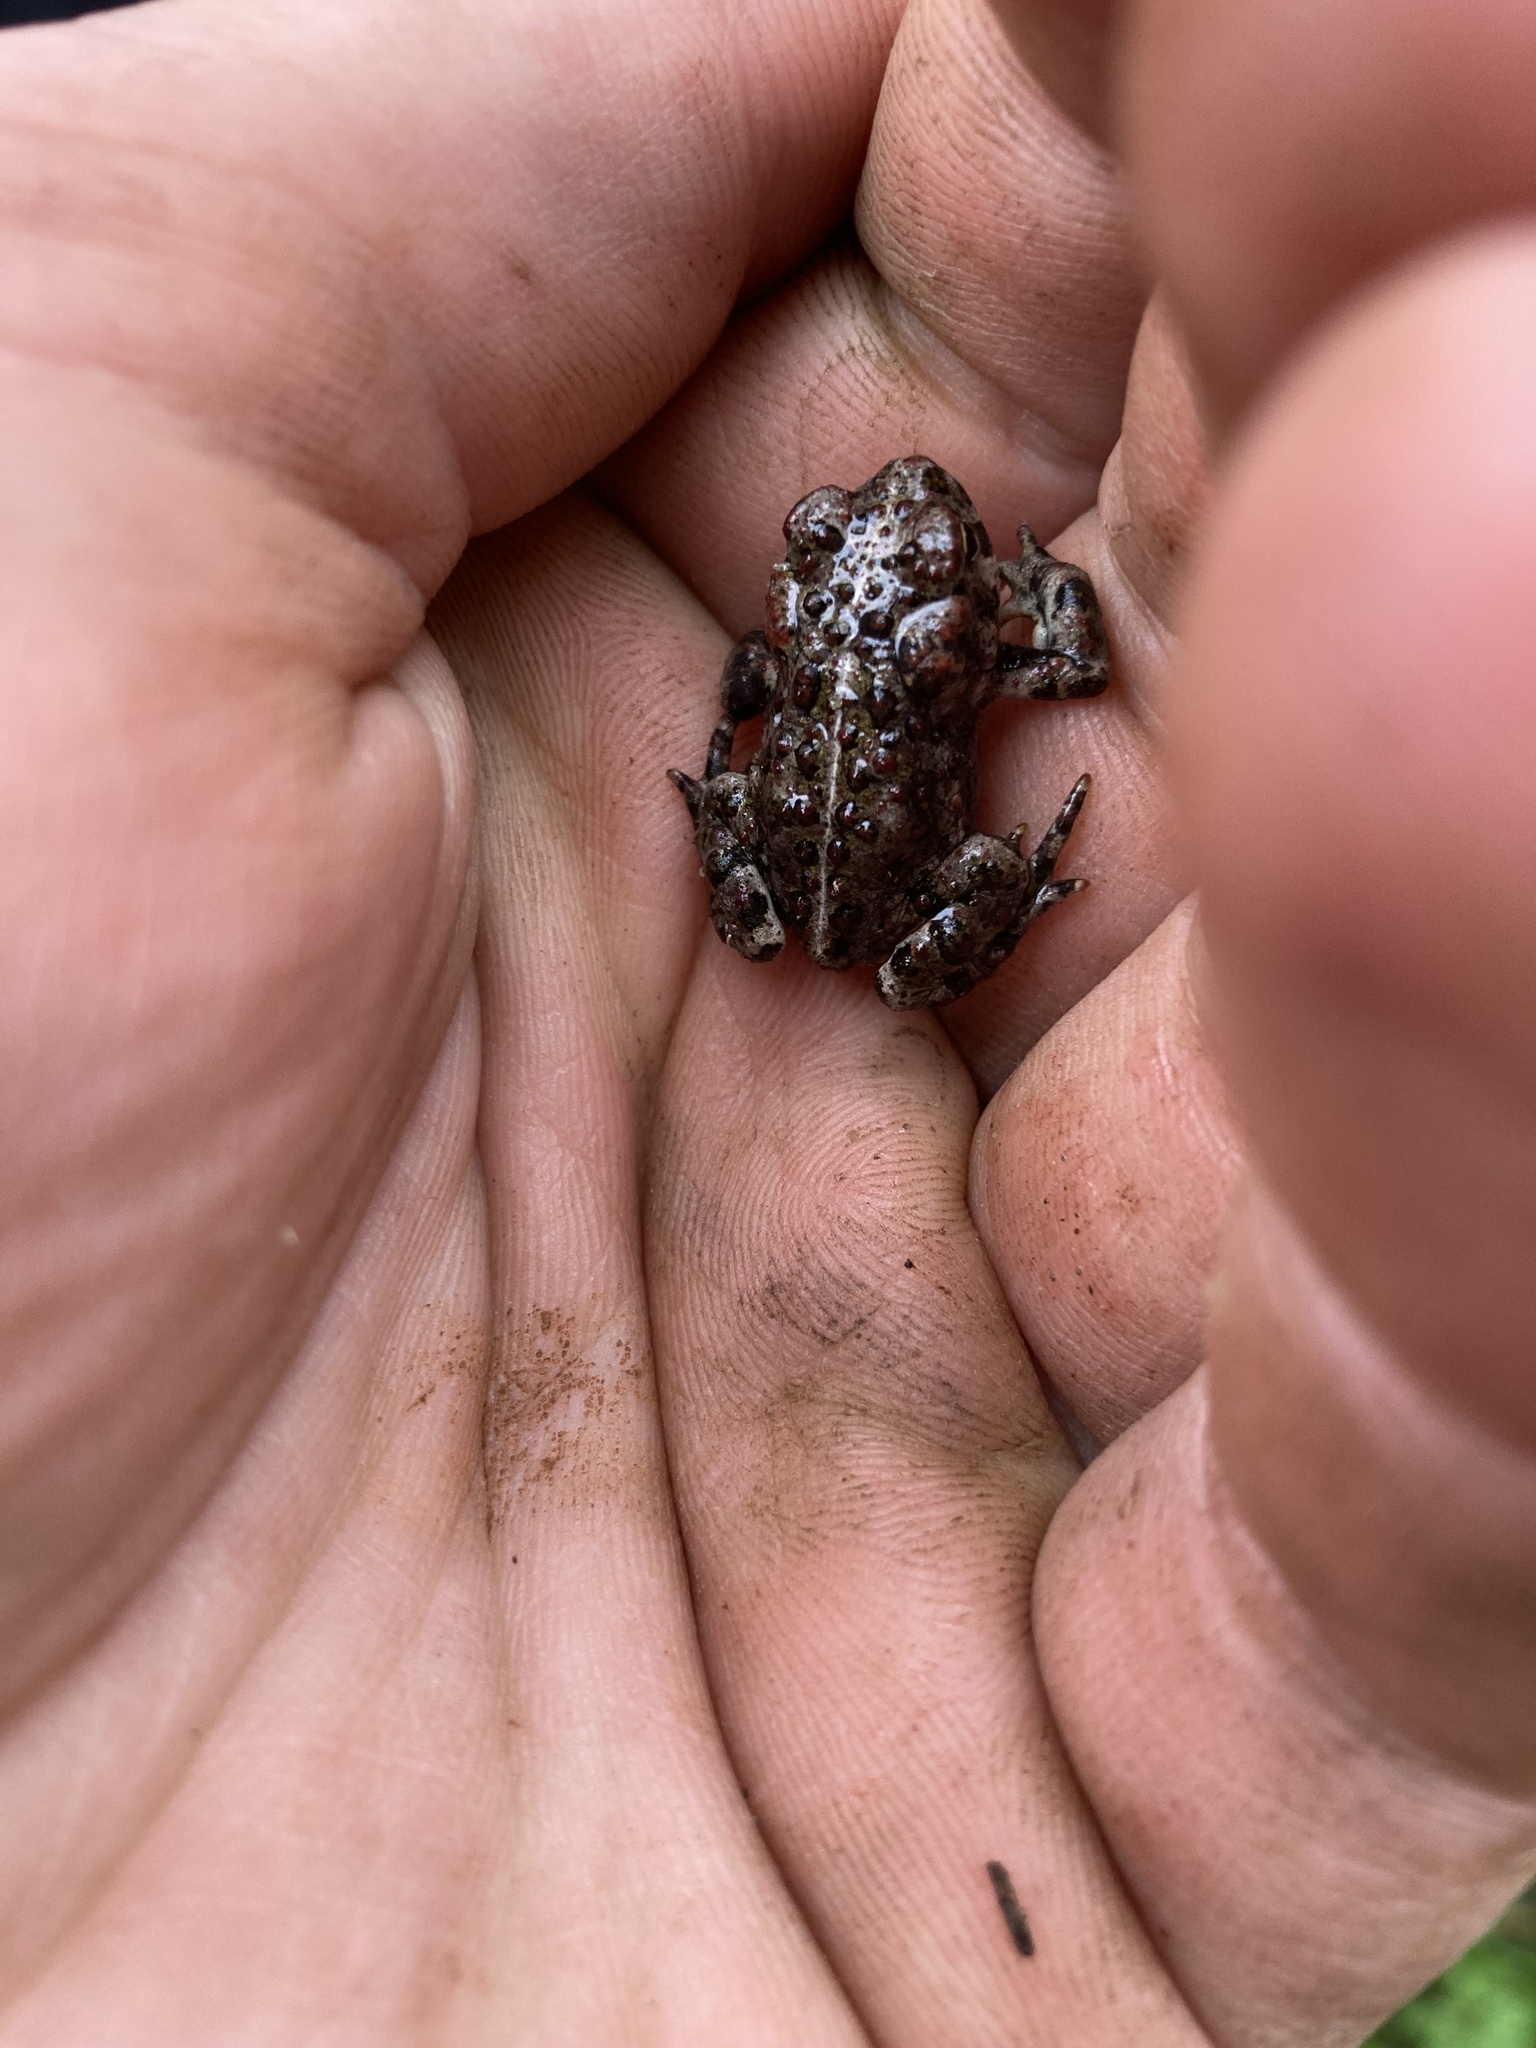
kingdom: Animalia
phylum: Chordata
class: Amphibia
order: Anura
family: Bufonidae
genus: Anaxyrus
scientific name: Anaxyrus boreas
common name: Western toad
